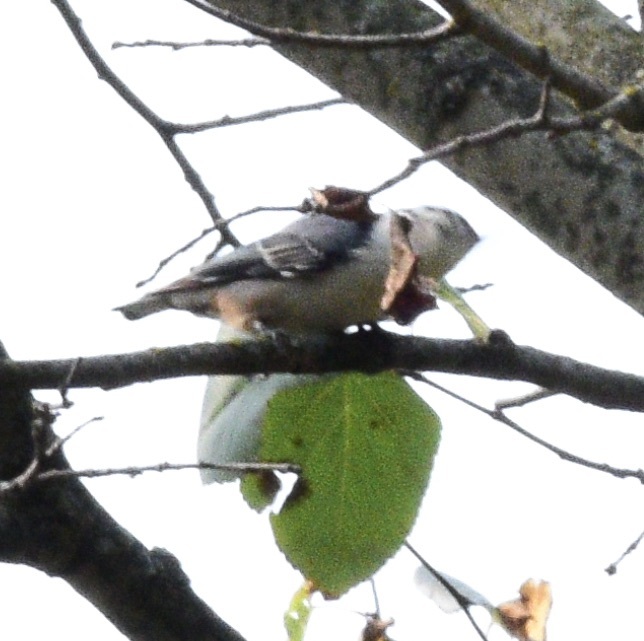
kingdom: Animalia
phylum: Chordata
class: Aves
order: Passeriformes
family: Sittidae
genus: Sitta
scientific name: Sitta carolinensis
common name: White-breasted nuthatch
